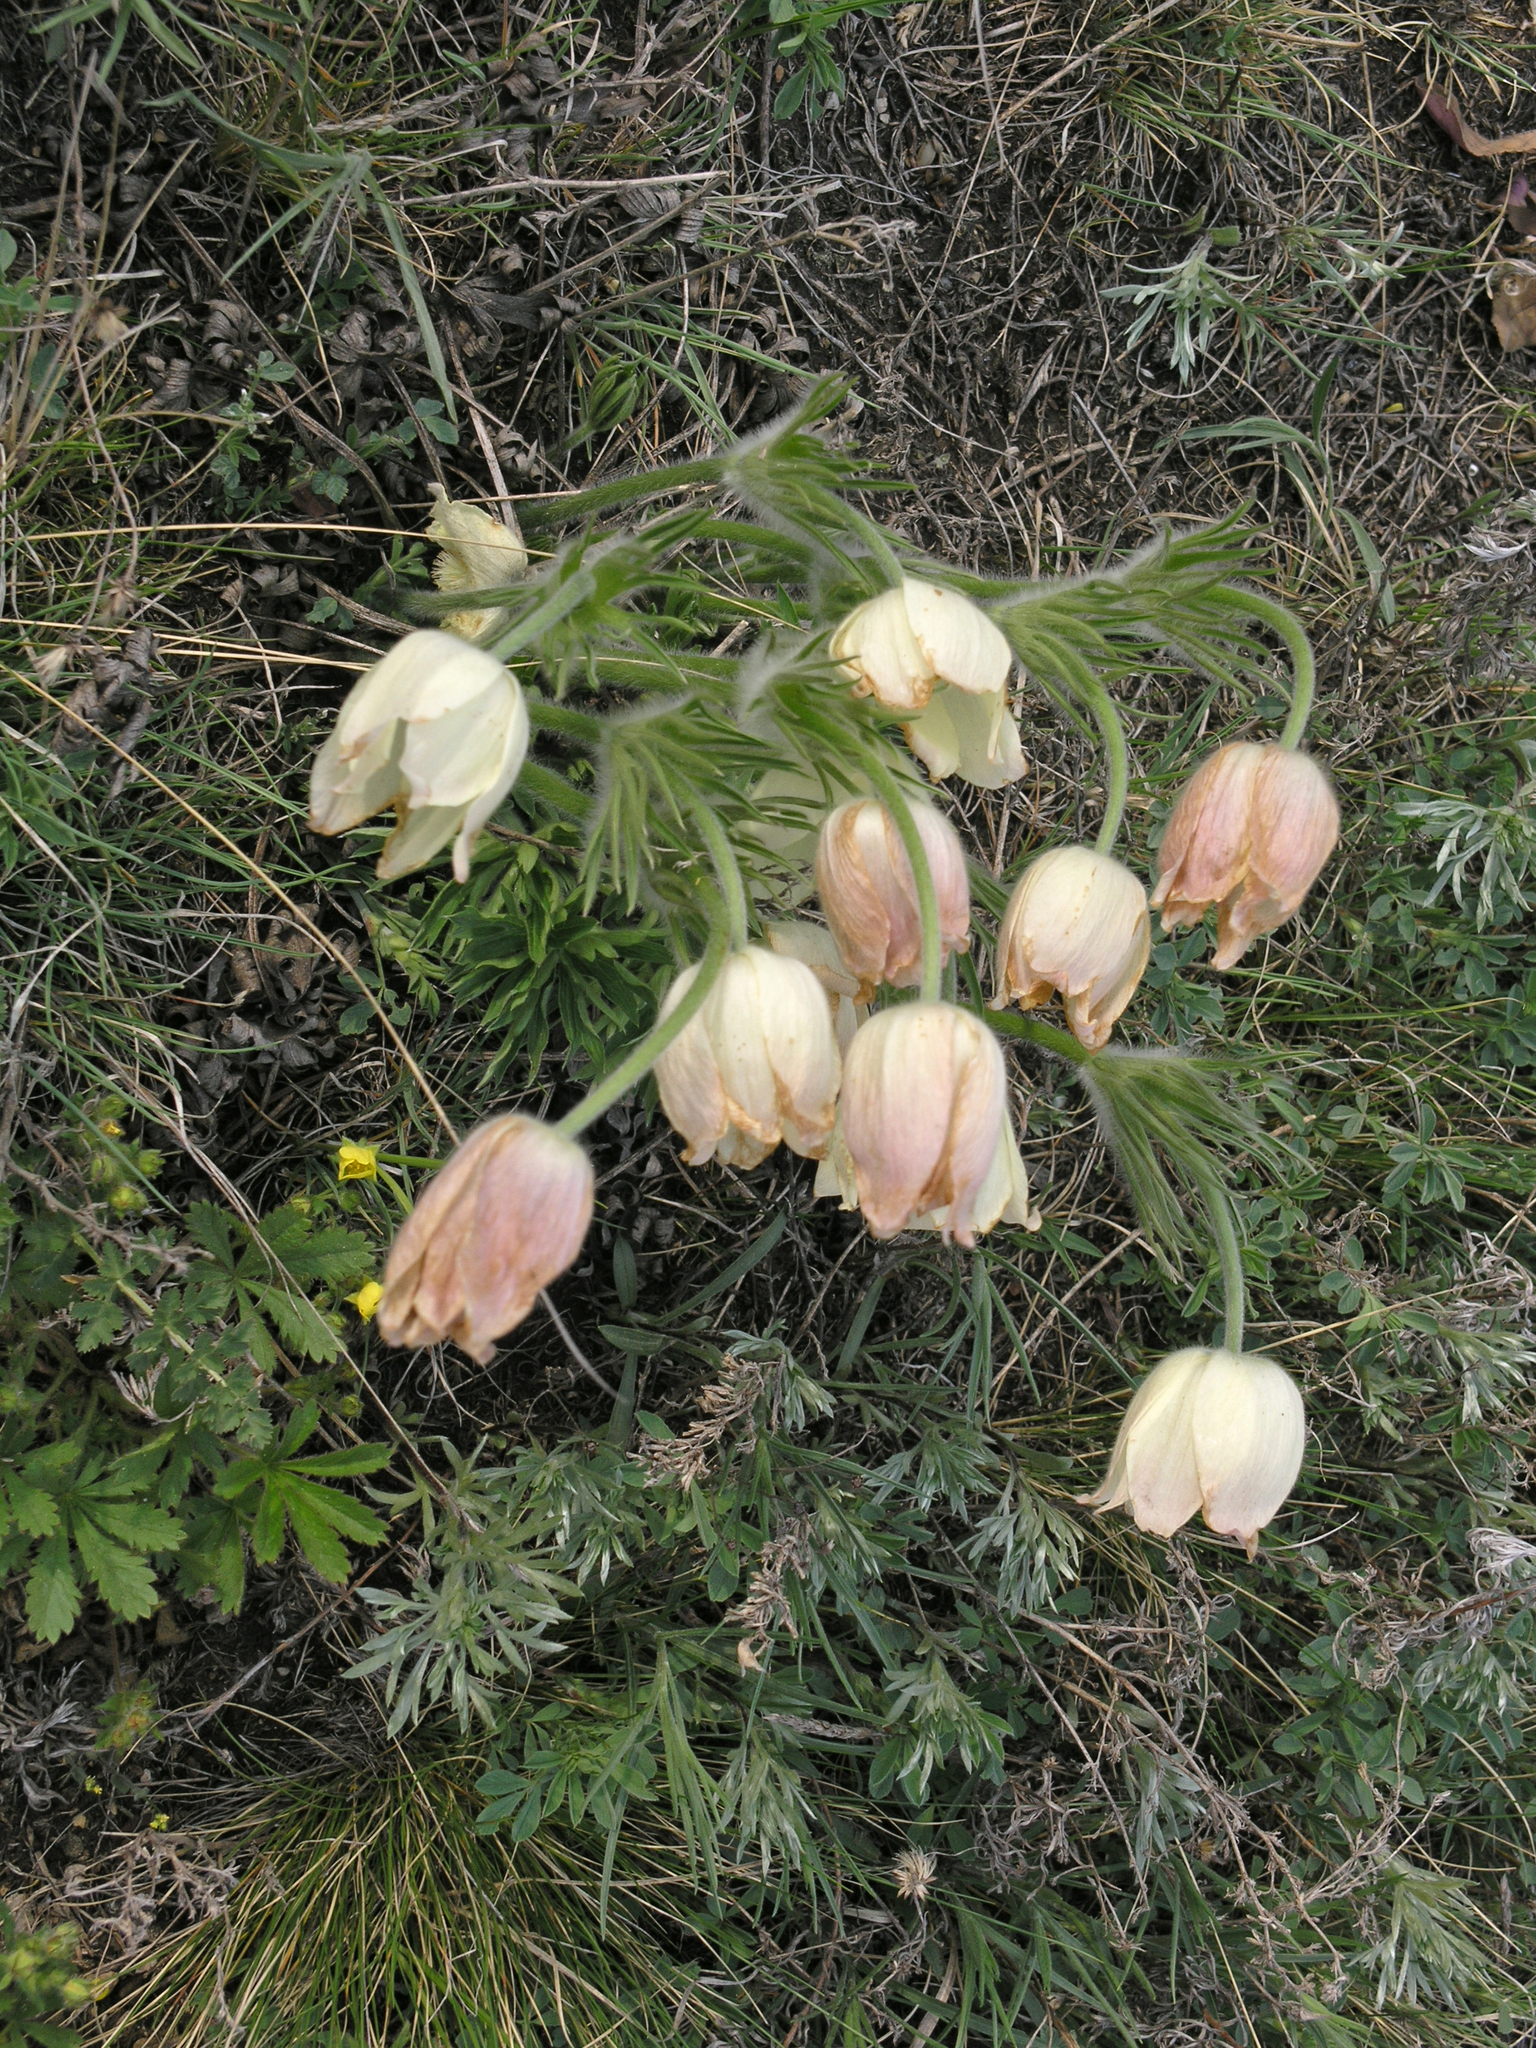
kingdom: Plantae
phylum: Tracheophyta
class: Magnoliopsida
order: Ranunculales
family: Ranunculaceae
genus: Pulsatilla
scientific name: Pulsatilla patens
